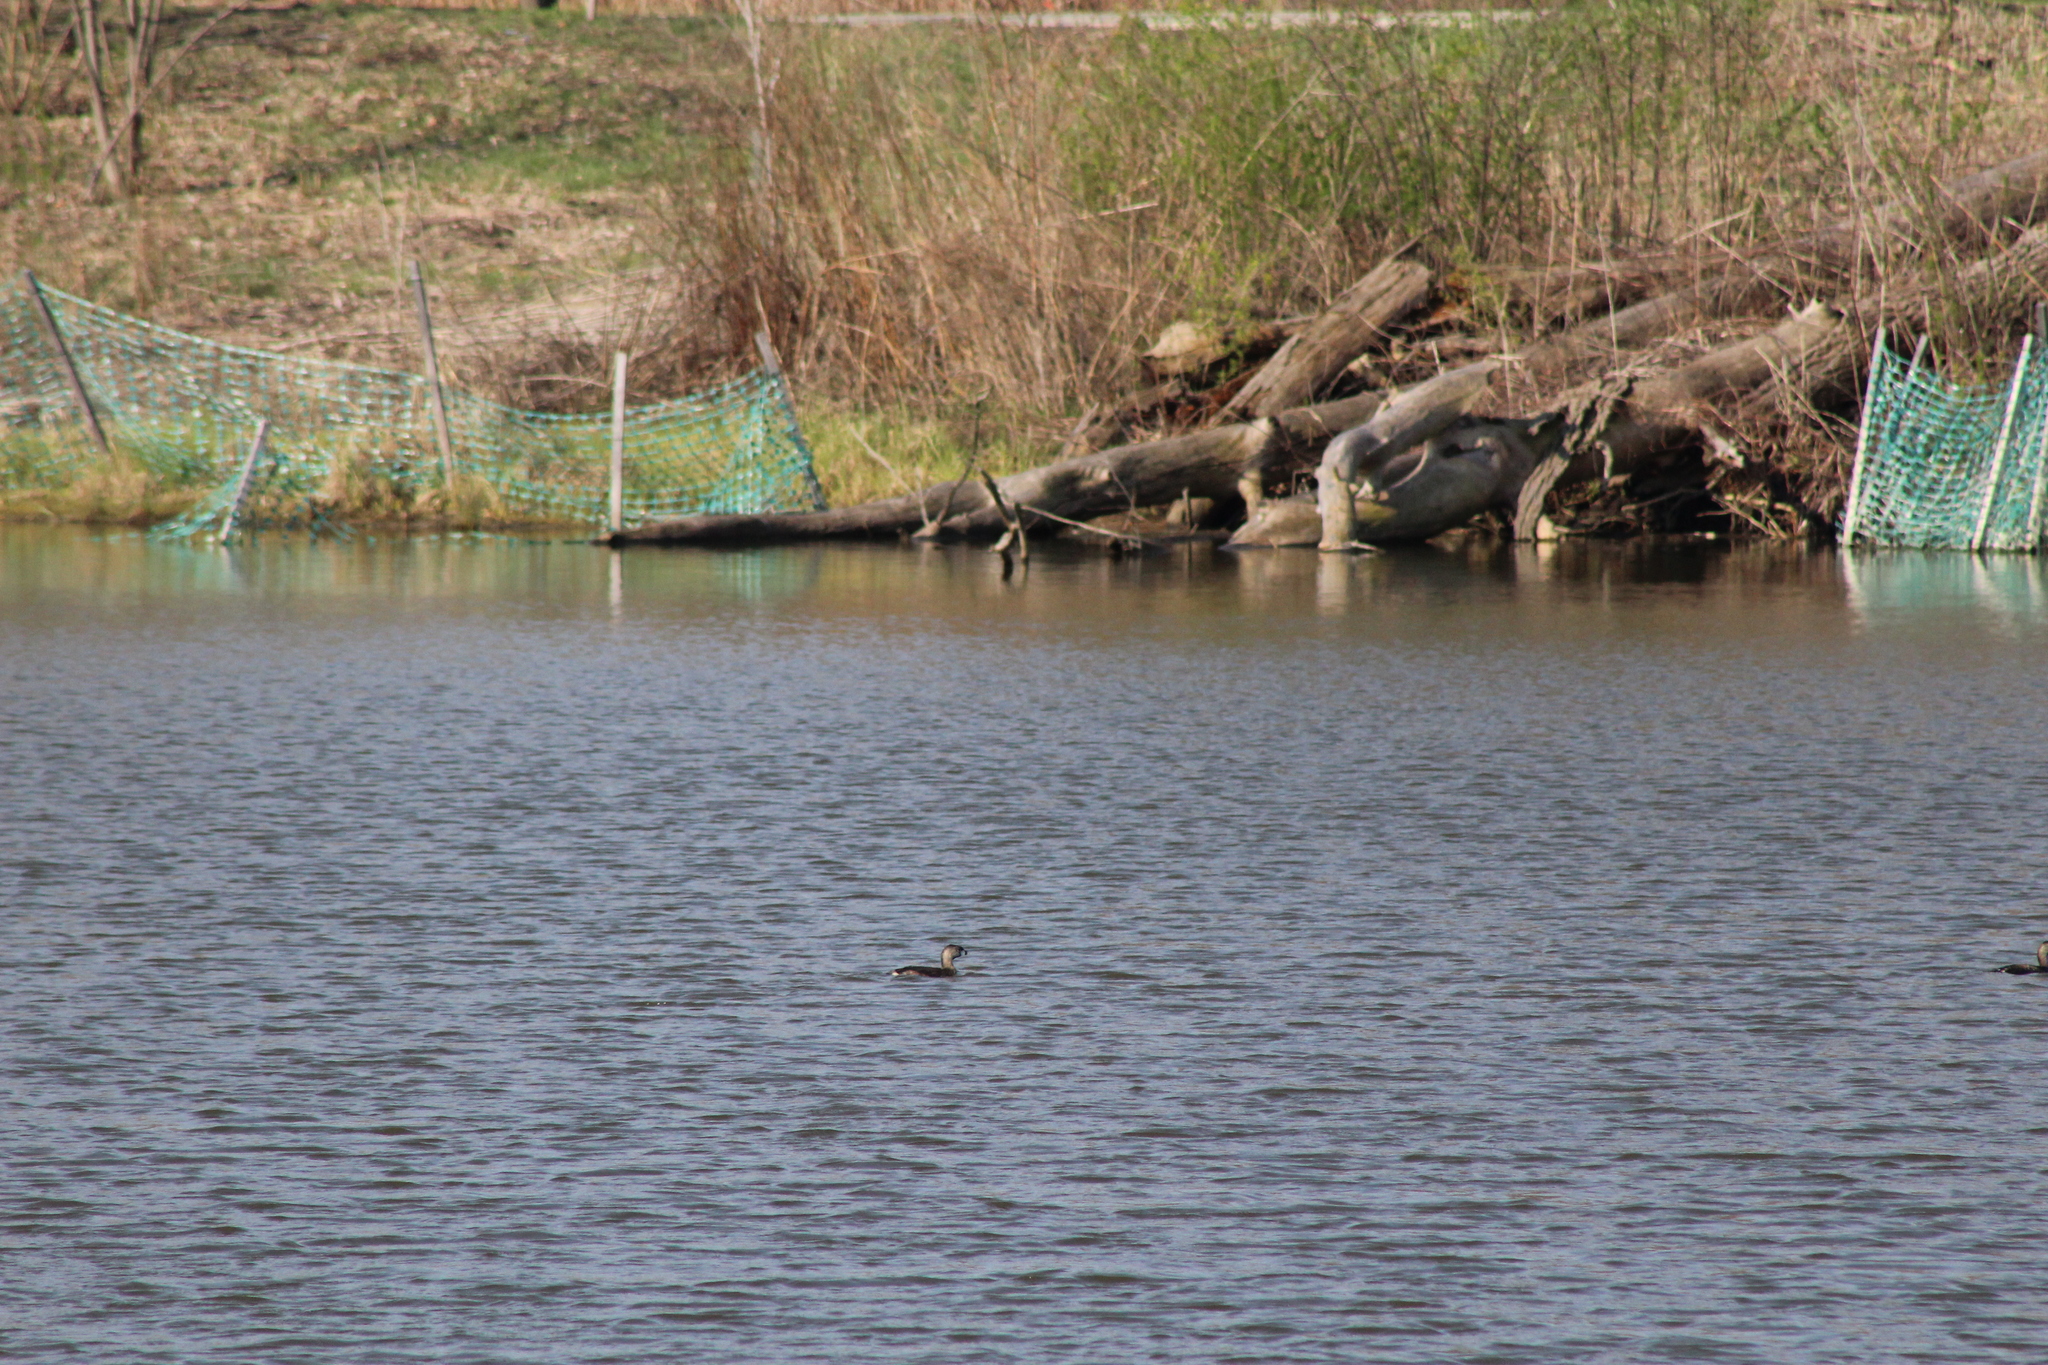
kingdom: Animalia
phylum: Chordata
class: Aves
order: Podicipediformes
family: Podicipedidae
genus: Podilymbus
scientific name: Podilymbus podiceps
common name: Pied-billed grebe
